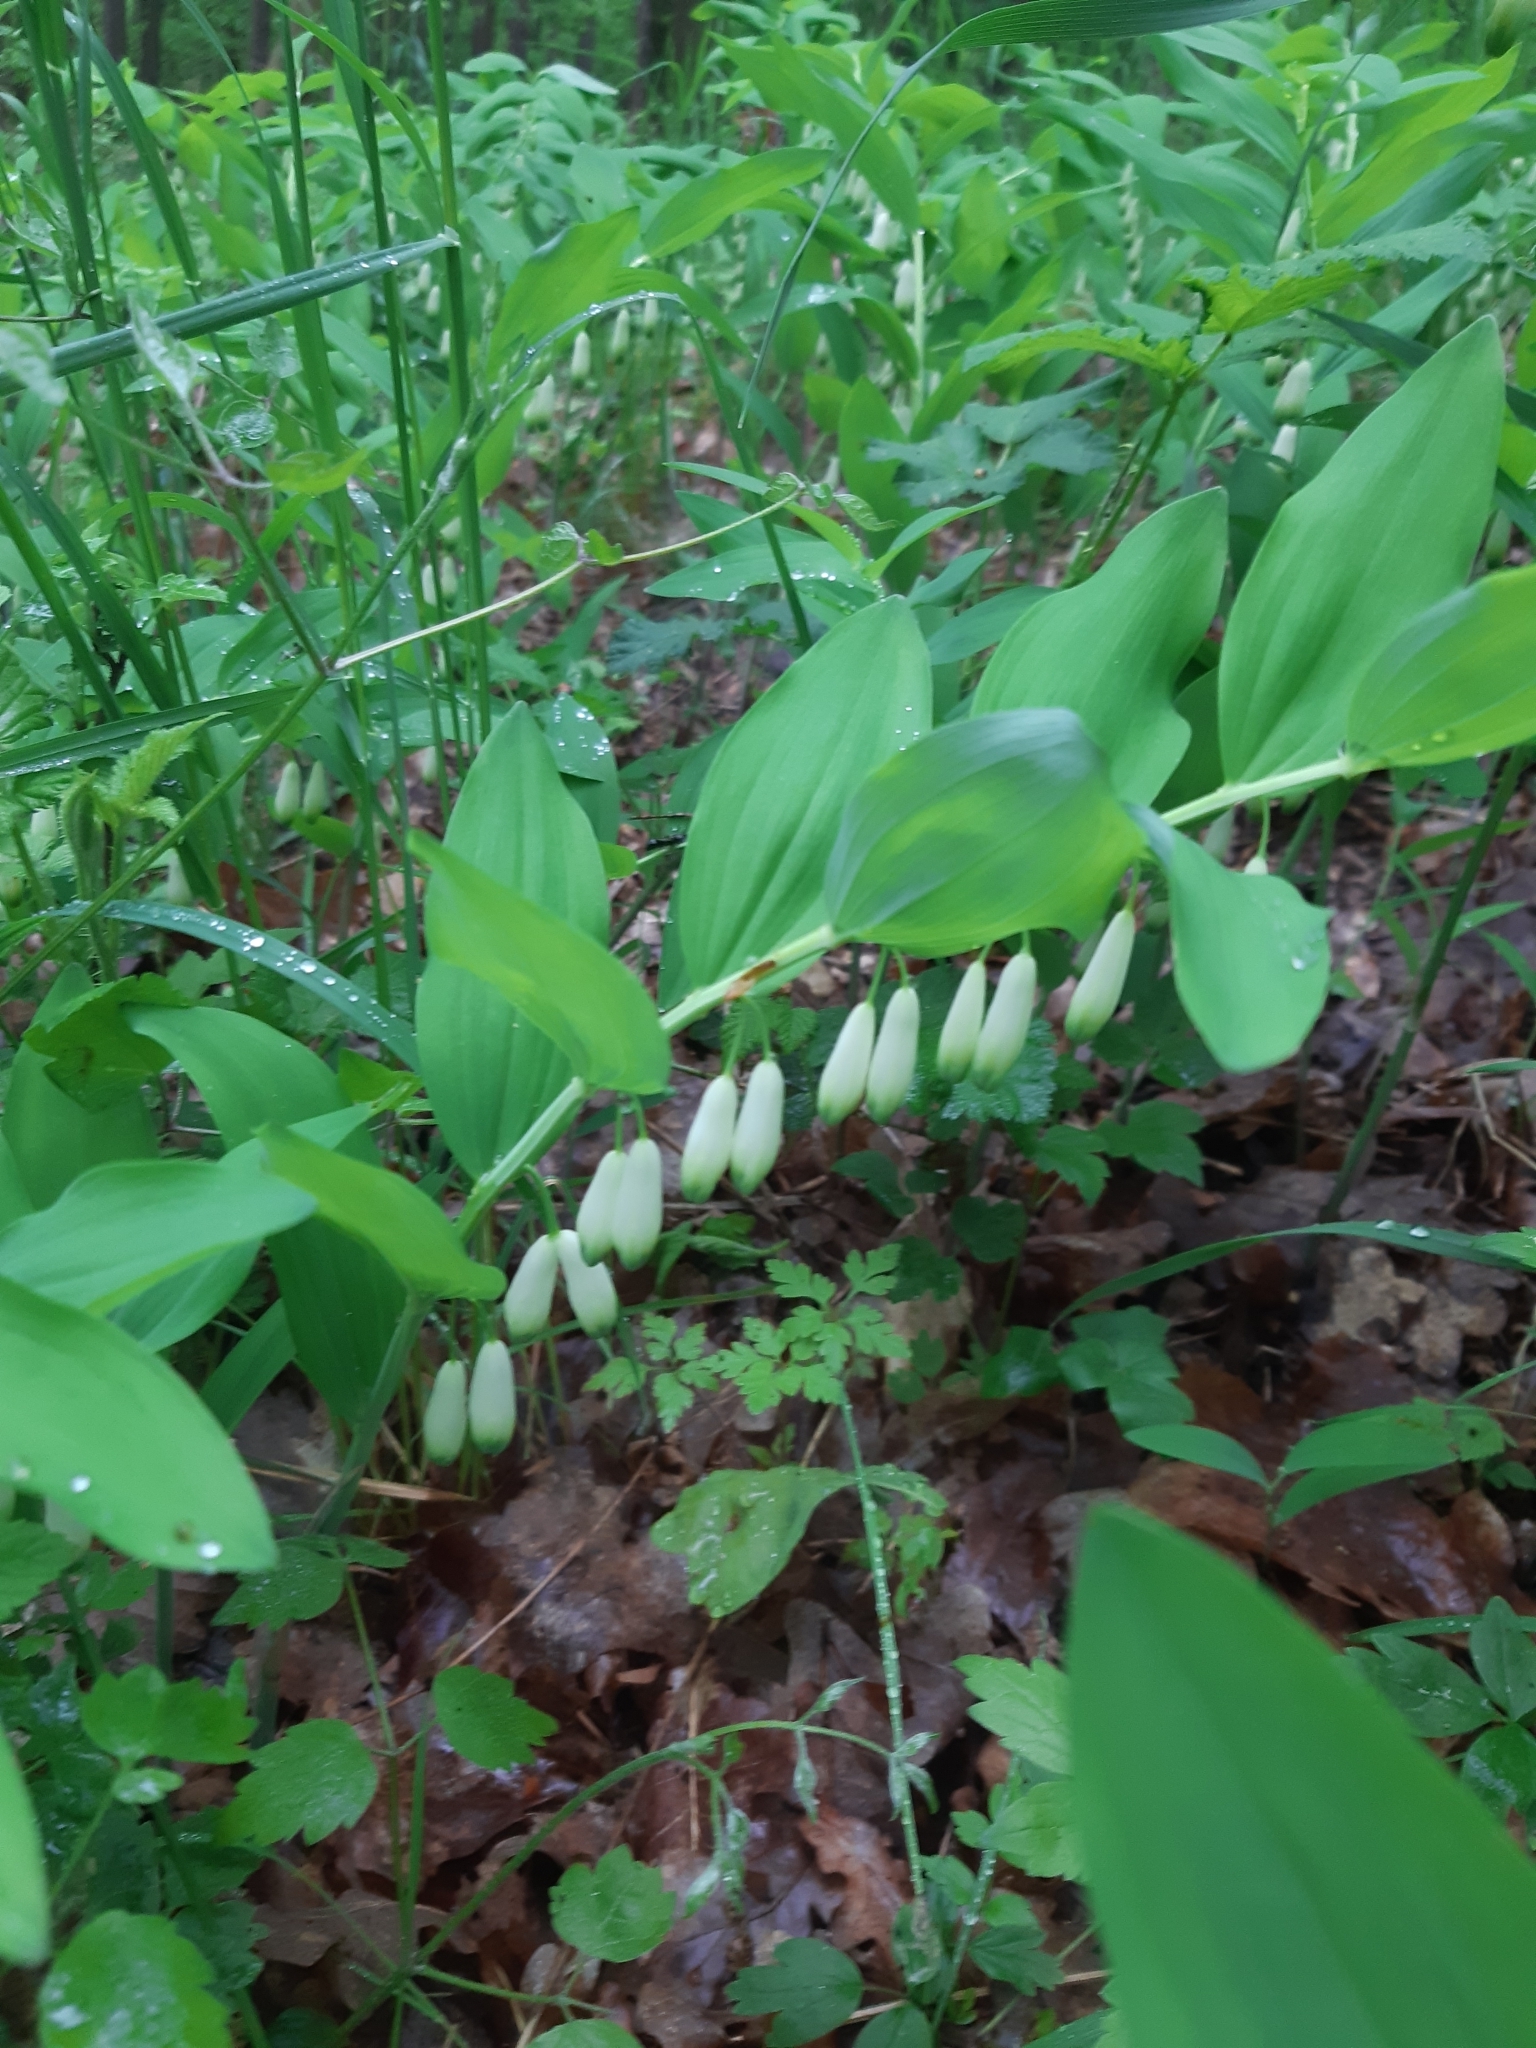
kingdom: Plantae
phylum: Tracheophyta
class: Liliopsida
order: Asparagales
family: Asparagaceae
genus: Polygonatum
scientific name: Polygonatum odoratum
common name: Angular solomon's-seal
